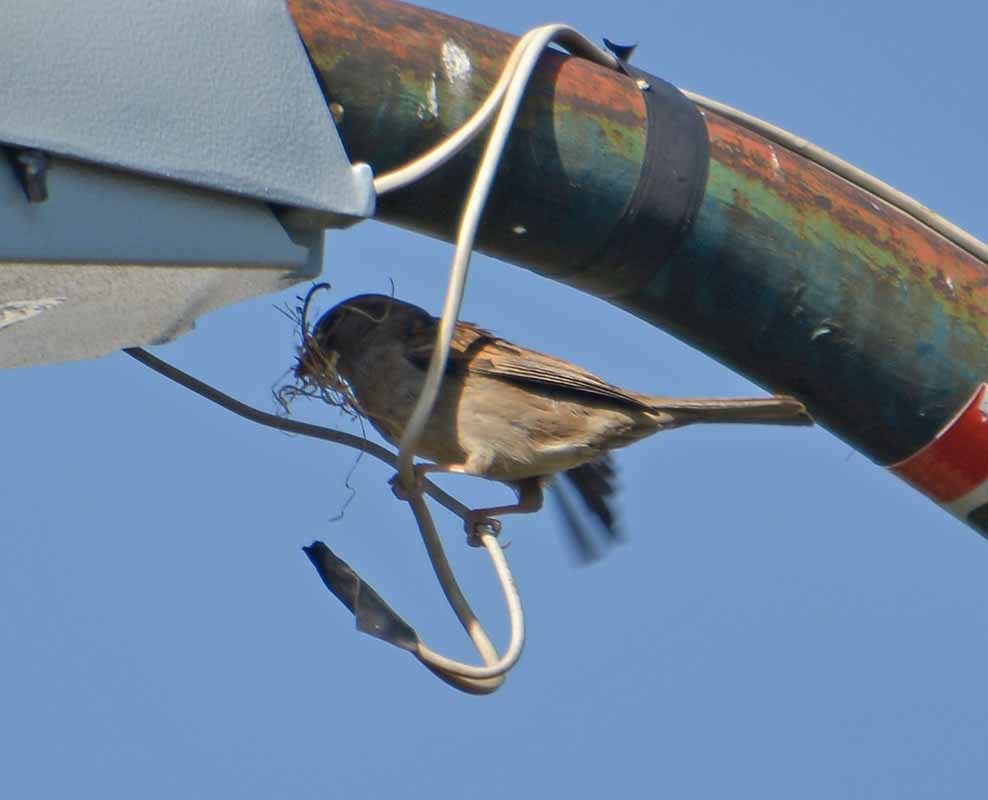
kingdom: Animalia
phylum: Chordata
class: Aves
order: Passeriformes
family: Passeridae
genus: Passer
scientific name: Passer domesticus
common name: House sparrow
